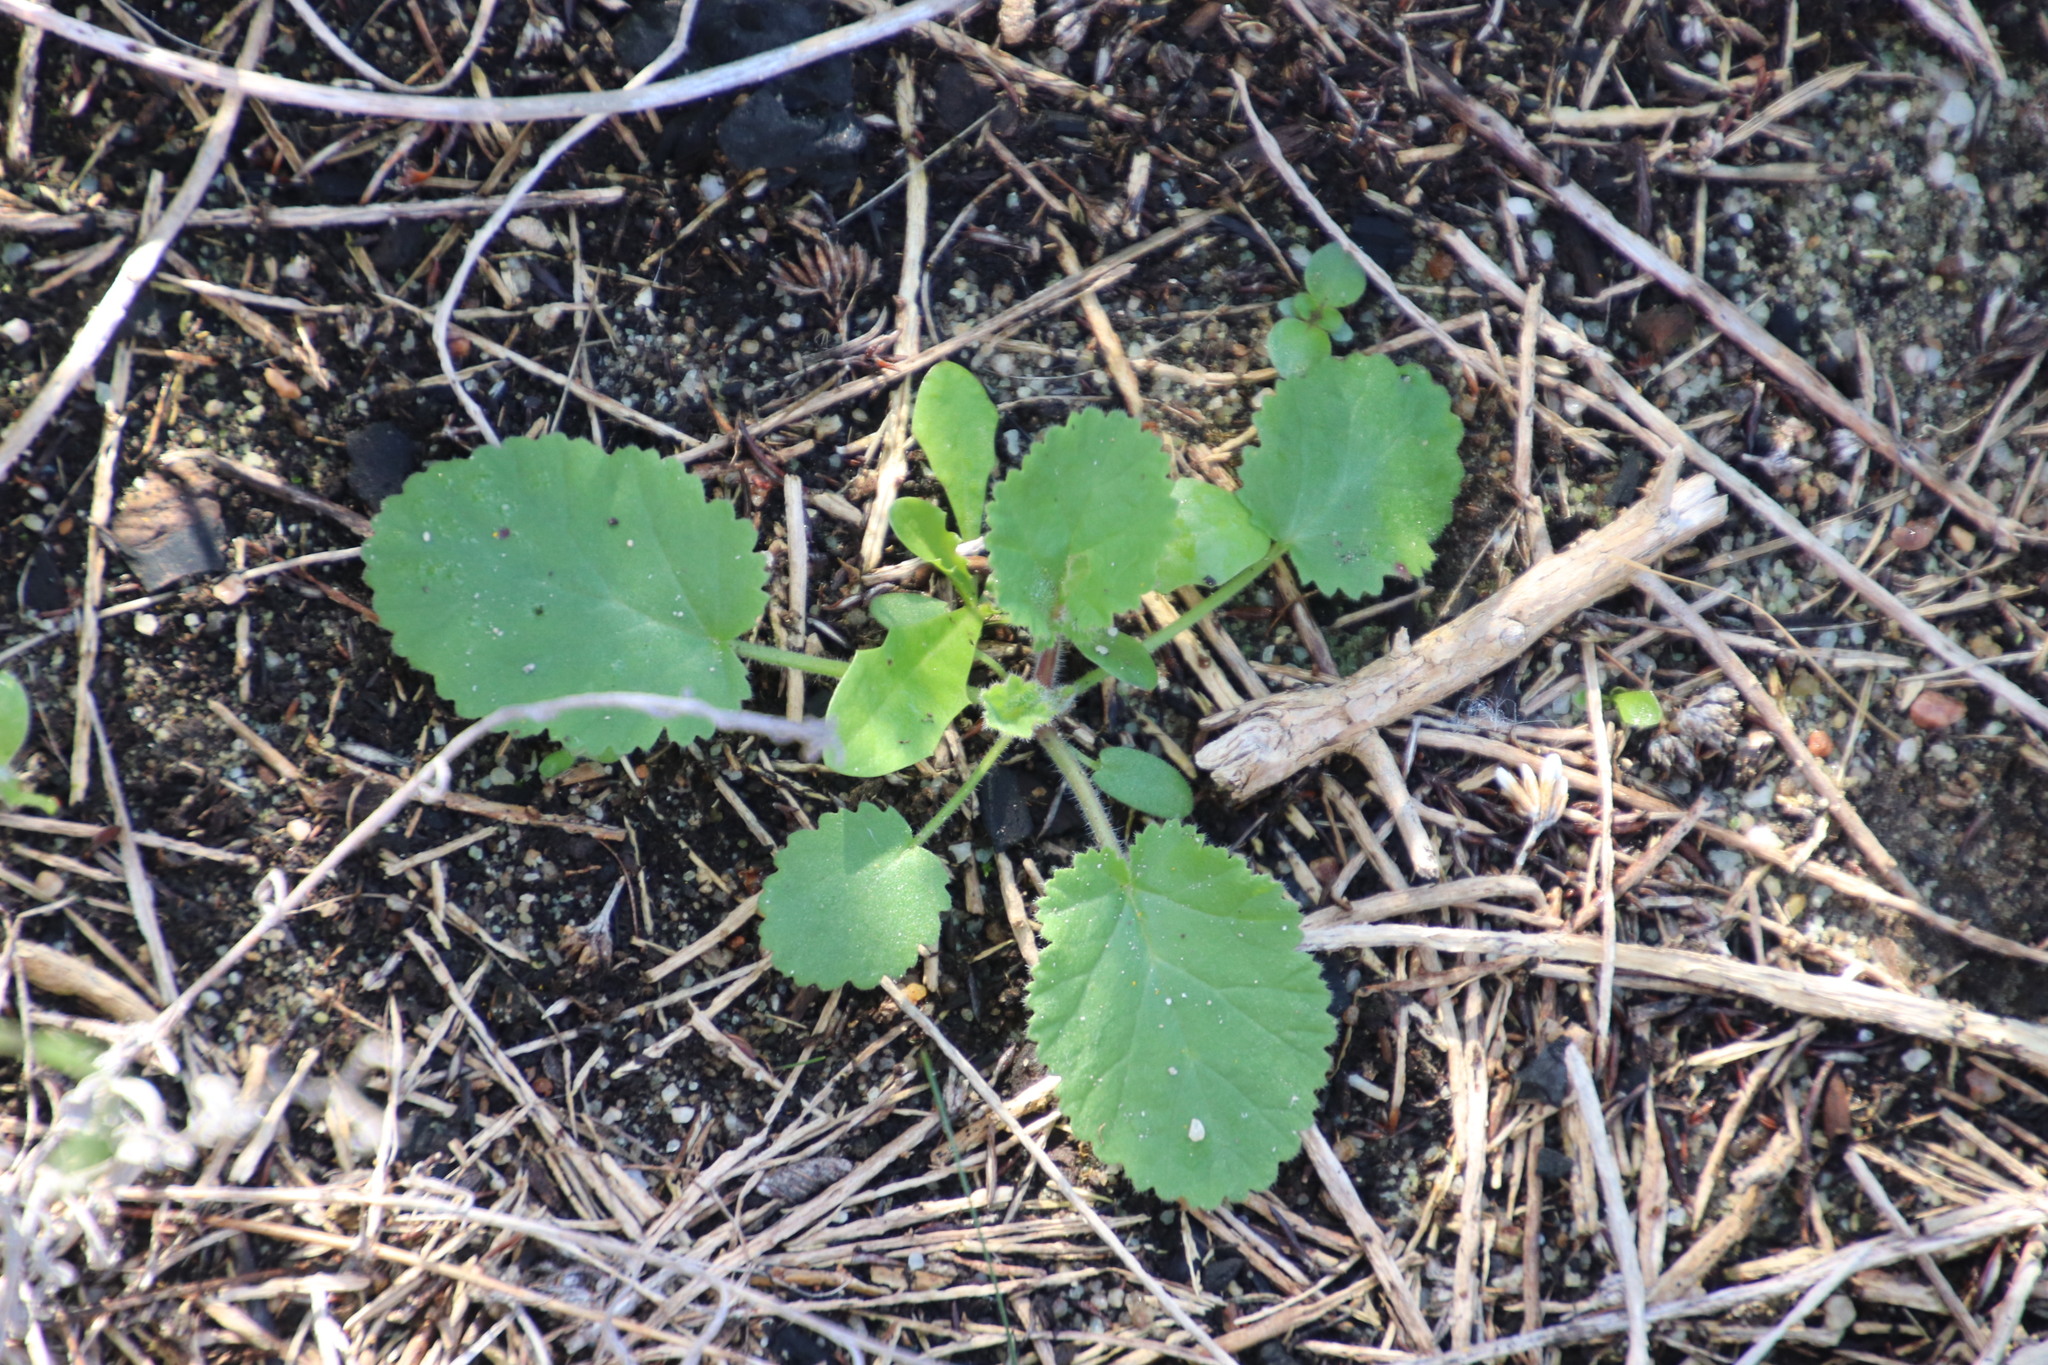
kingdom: Plantae
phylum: Tracheophyta
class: Magnoliopsida
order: Geraniales
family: Geraniaceae
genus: Pelargonium
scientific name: Pelargonium althaeoides
